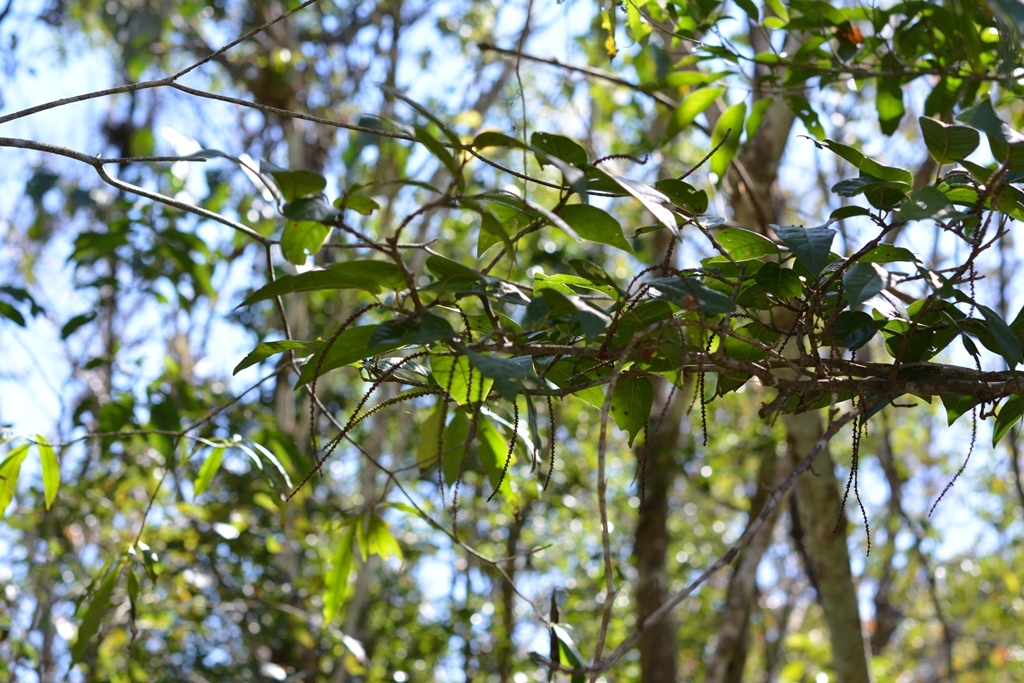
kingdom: Plantae
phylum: Tracheophyta
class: Magnoliopsida
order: Caryophyllales
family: Polygonaceae
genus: Coccoloba
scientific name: Coccoloba floresii
